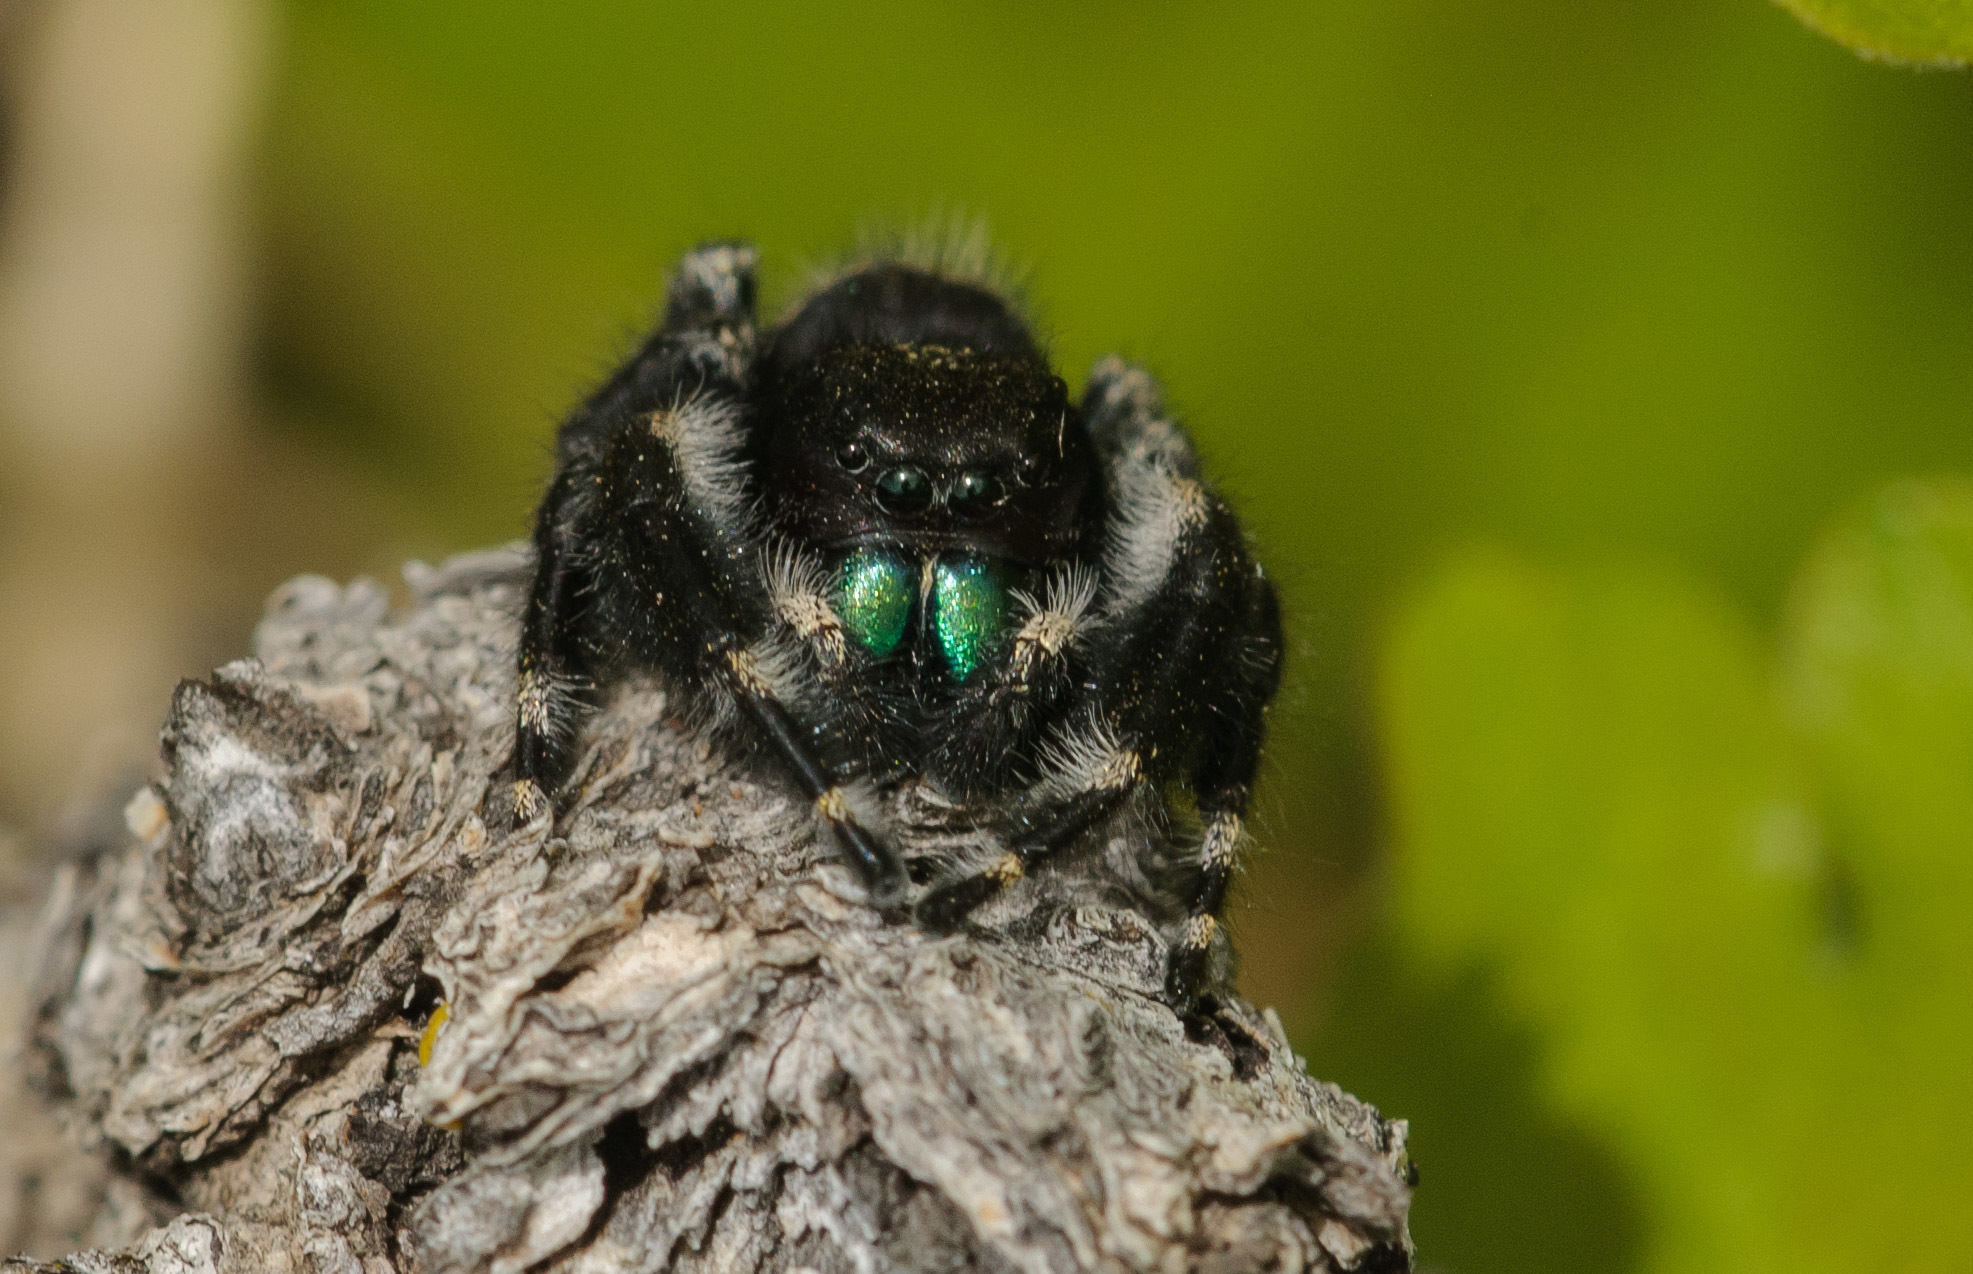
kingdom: Animalia
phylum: Arthropoda
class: Arachnida
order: Araneae
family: Salticidae
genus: Phidippus
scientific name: Phidippus audax
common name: Bold jumper
